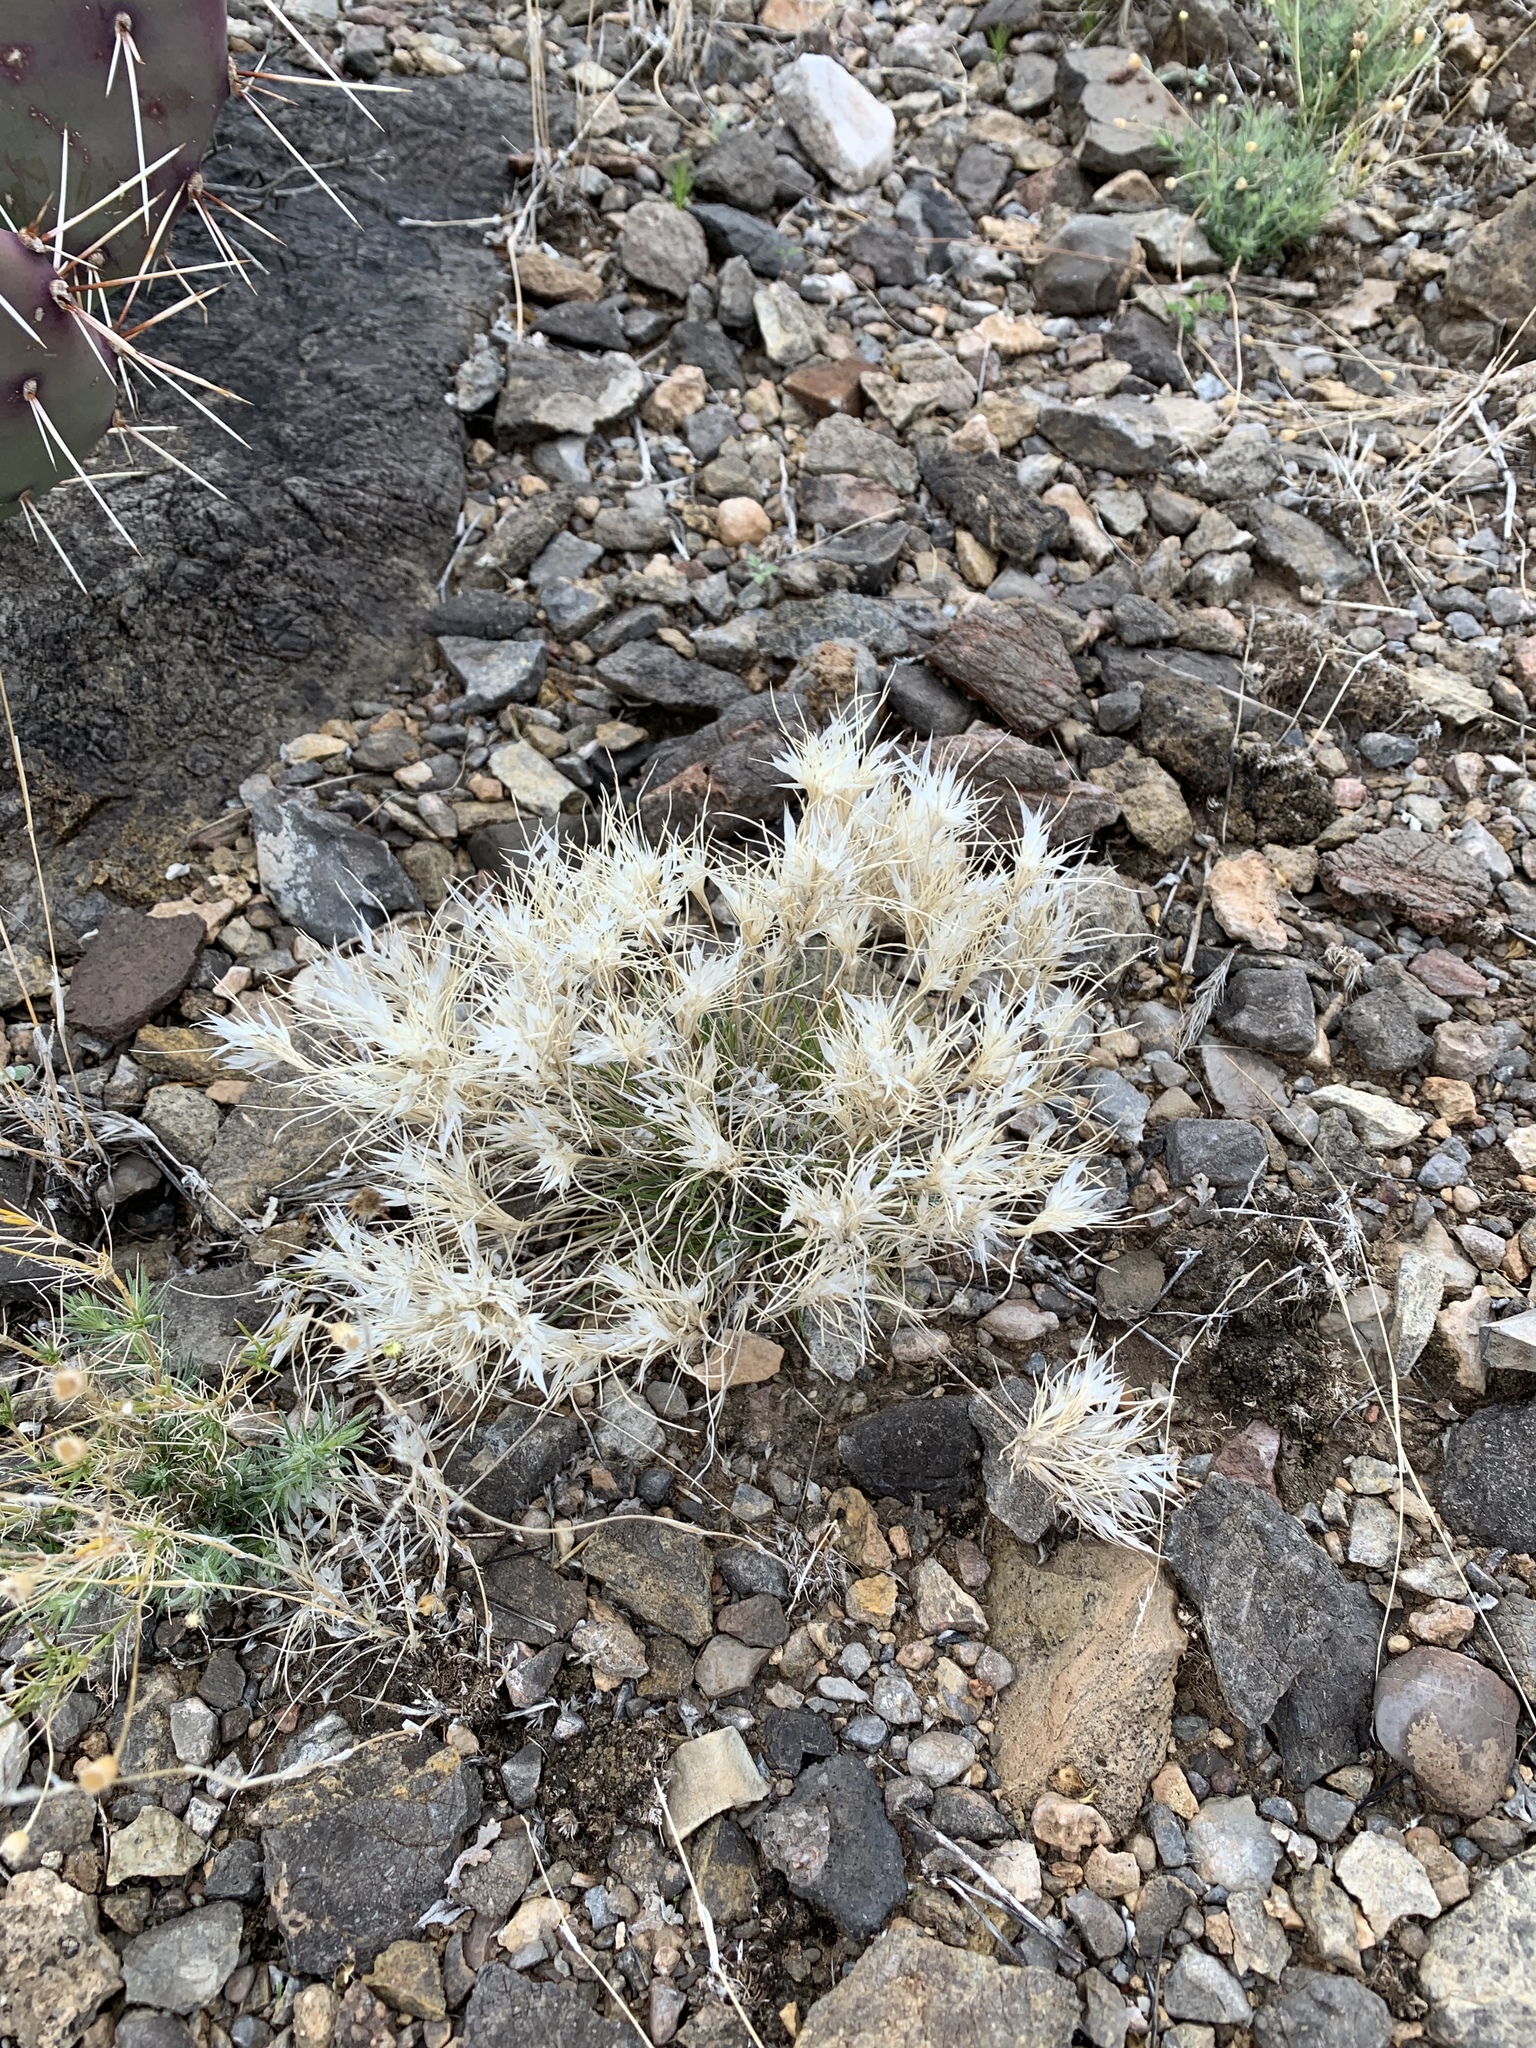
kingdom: Plantae
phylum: Tracheophyta
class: Liliopsida
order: Poales
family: Poaceae
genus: Dasyochloa
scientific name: Dasyochloa pulchella
